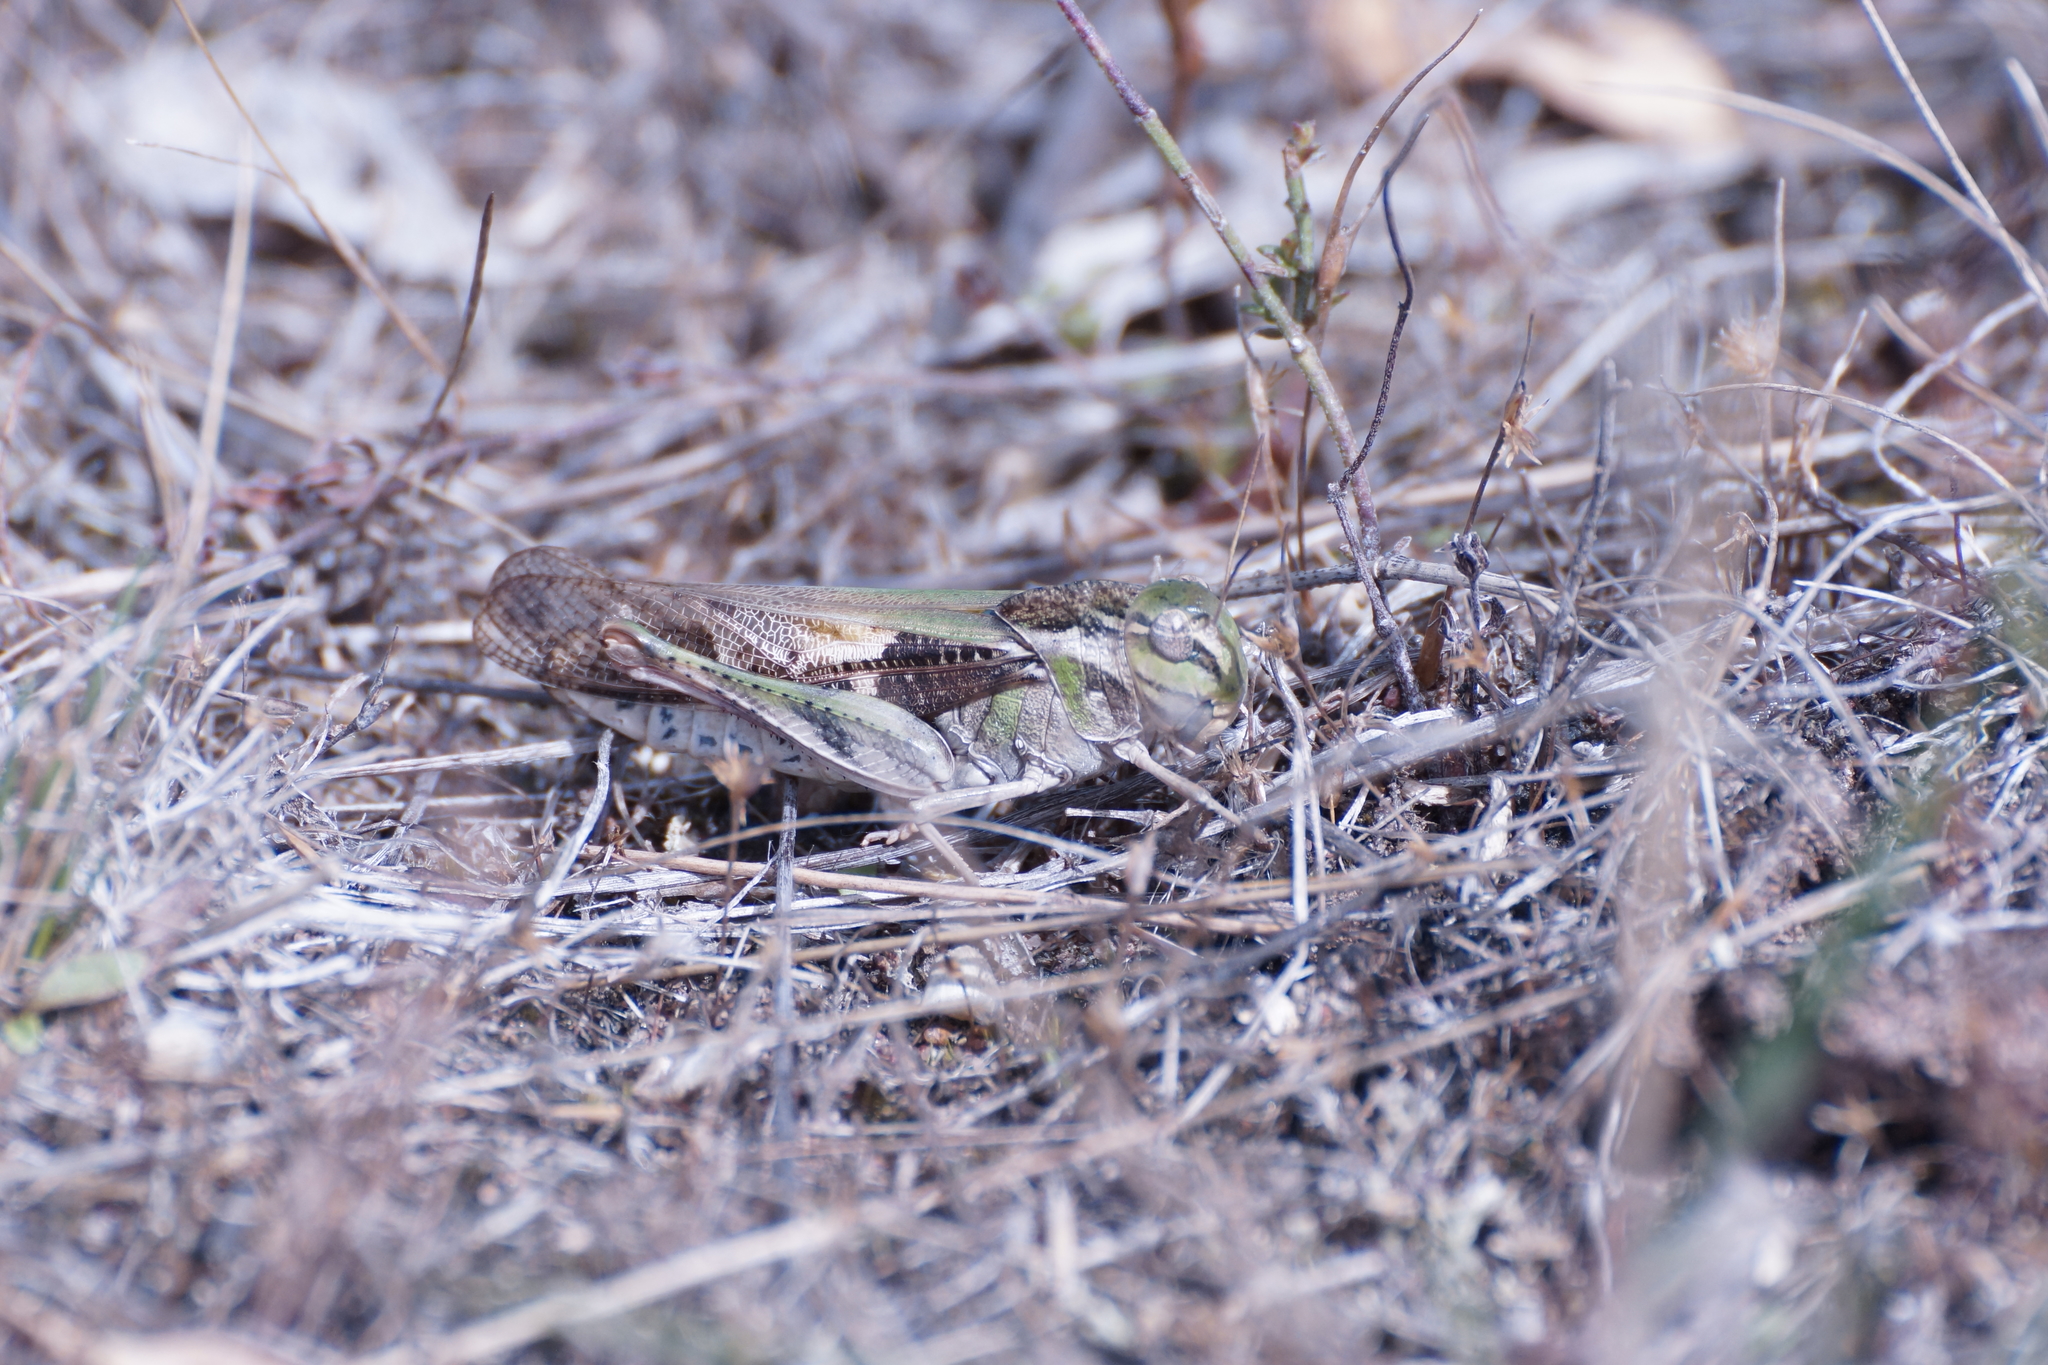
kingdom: Animalia
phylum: Arthropoda
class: Insecta
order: Orthoptera
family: Acrididae
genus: Gastrimargus
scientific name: Gastrimargus musicus
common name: Yellow-winged locust
